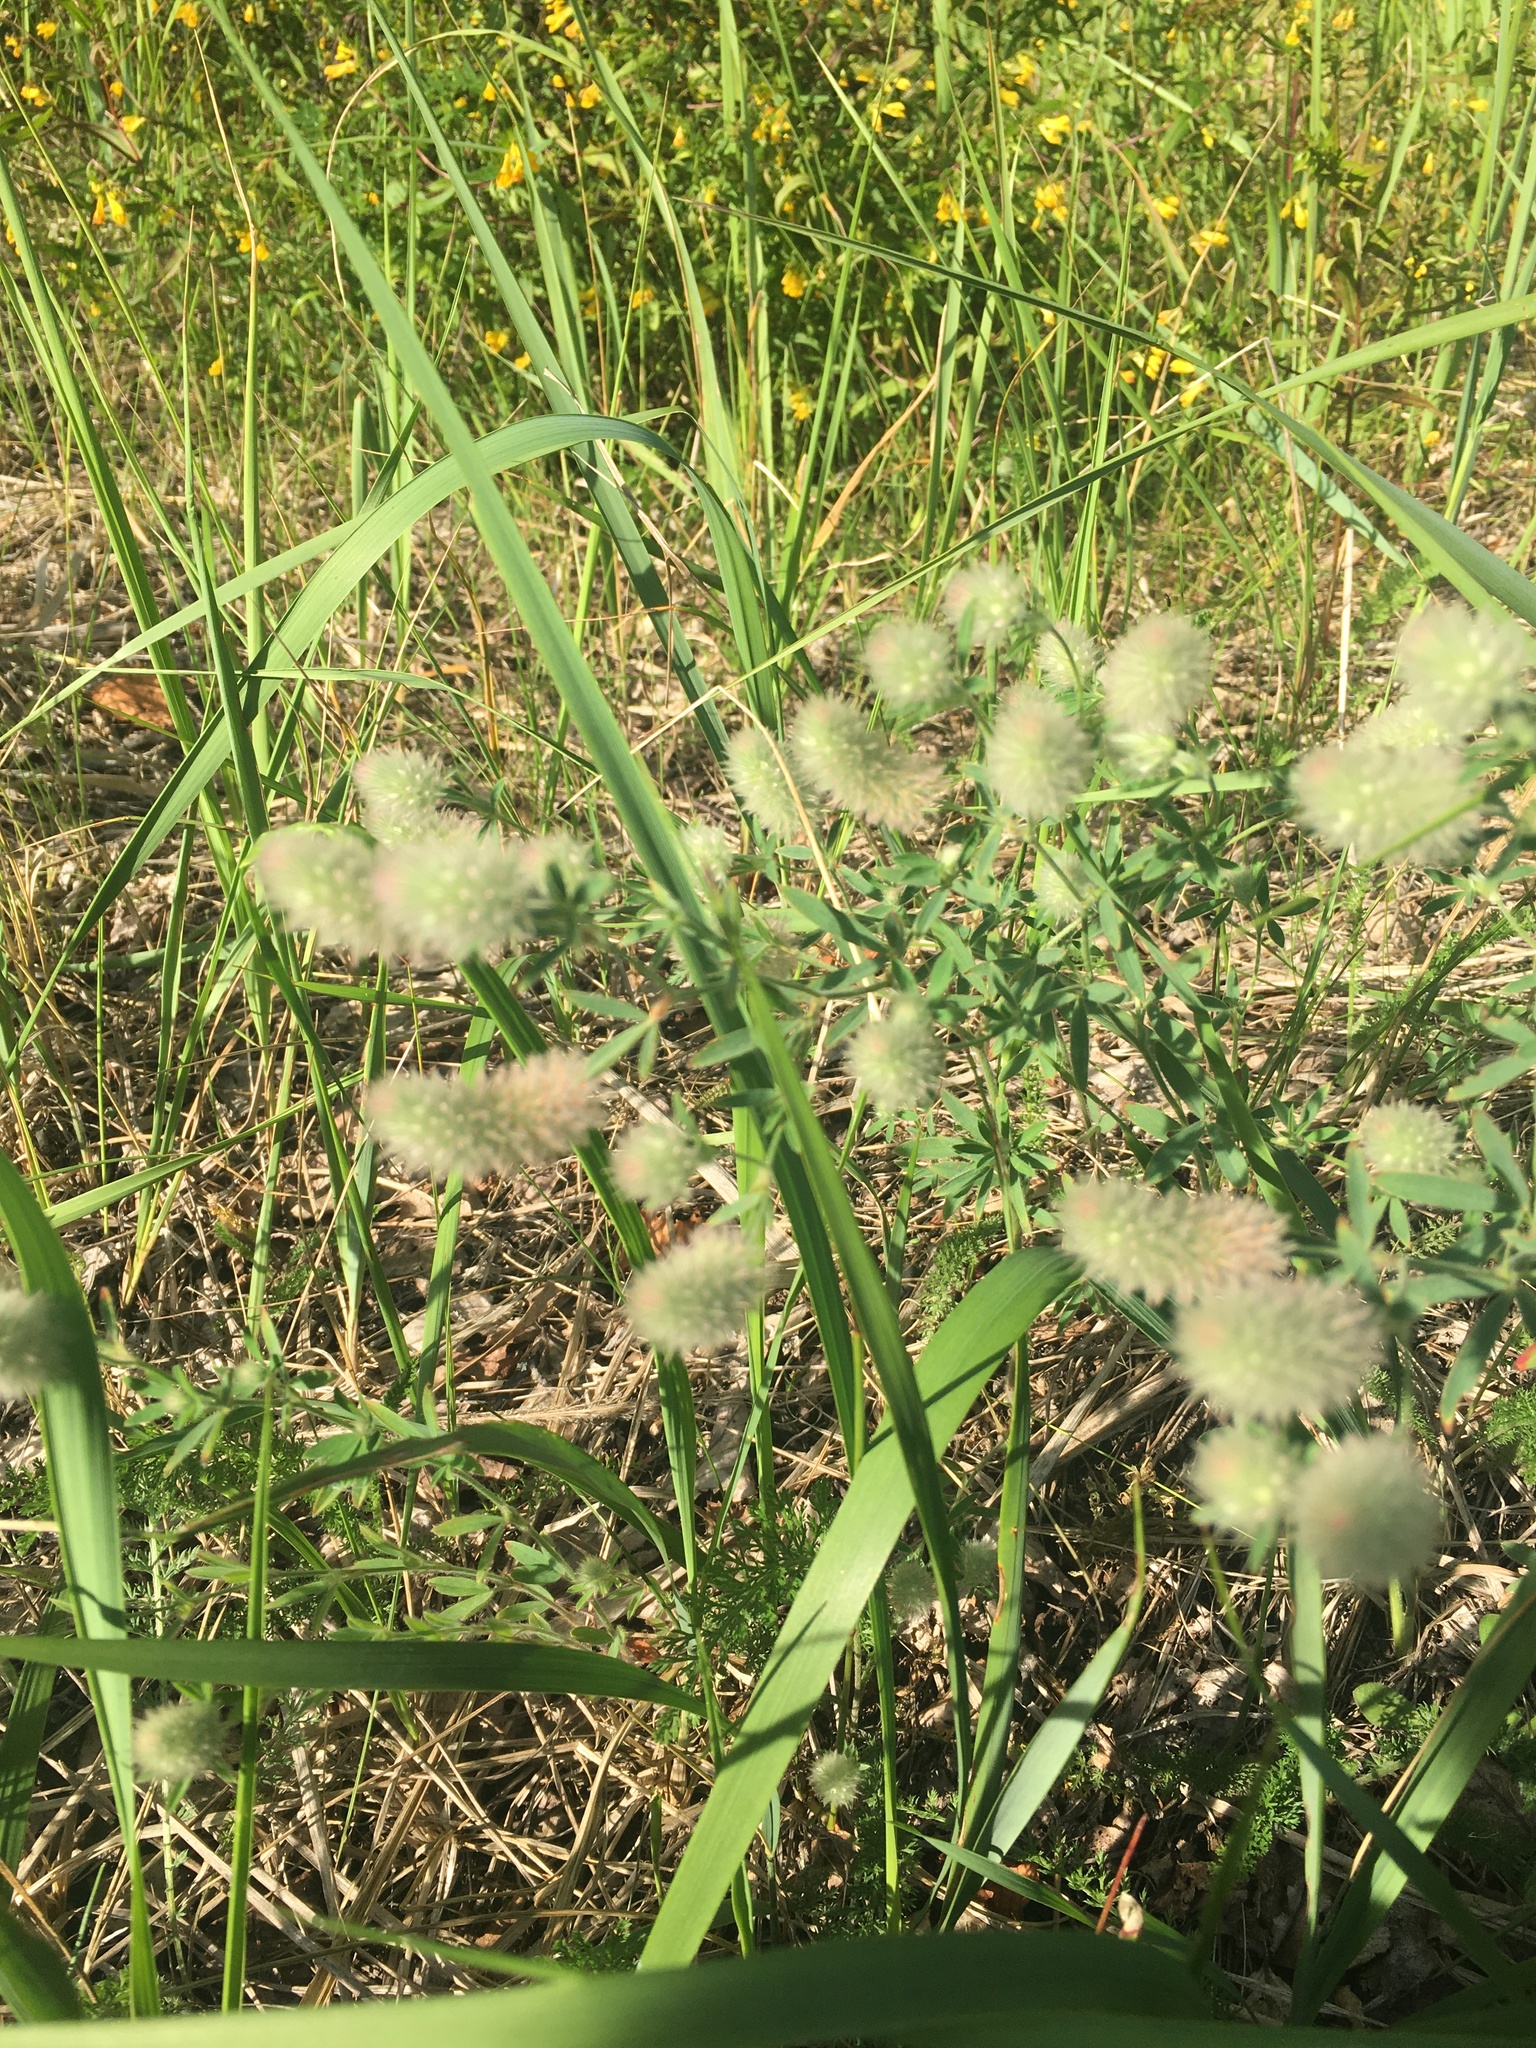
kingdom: Plantae
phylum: Tracheophyta
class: Magnoliopsida
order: Fabales
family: Fabaceae
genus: Trifolium
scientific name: Trifolium arvense
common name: Hare's-foot clover
